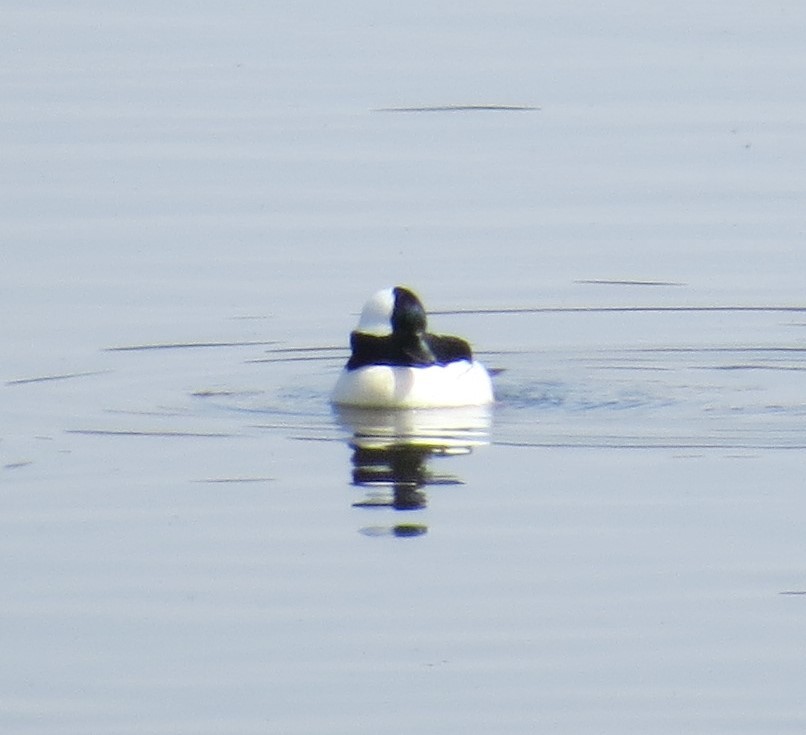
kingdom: Animalia
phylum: Chordata
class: Aves
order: Anseriformes
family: Anatidae
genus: Bucephala
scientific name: Bucephala albeola
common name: Bufflehead
